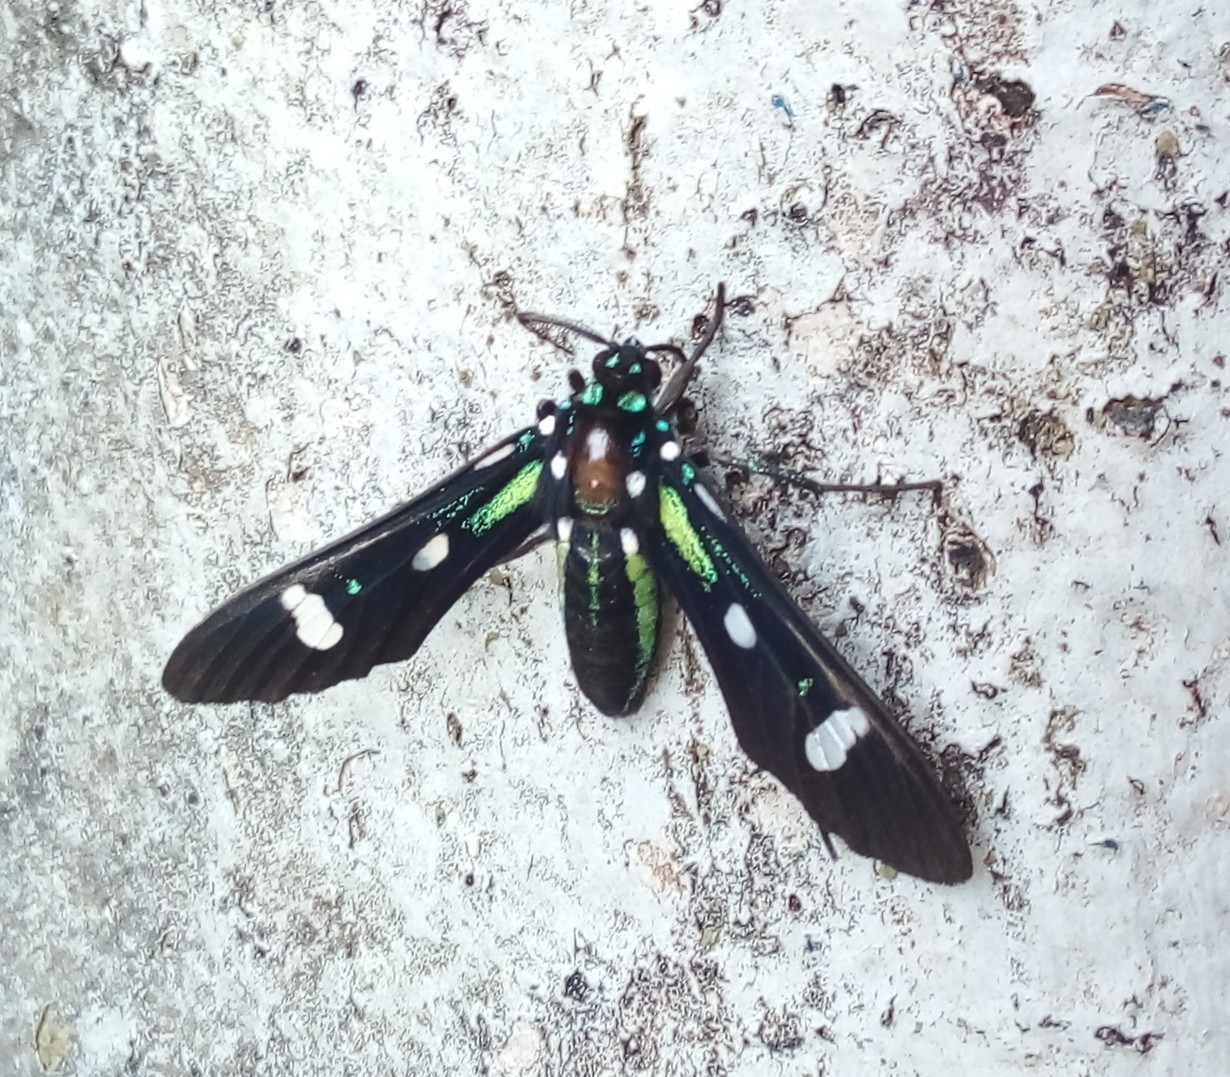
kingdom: Animalia
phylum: Arthropoda
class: Insecta
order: Lepidoptera
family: Erebidae
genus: Leucotmemis
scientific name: Leucotmemis nexa
